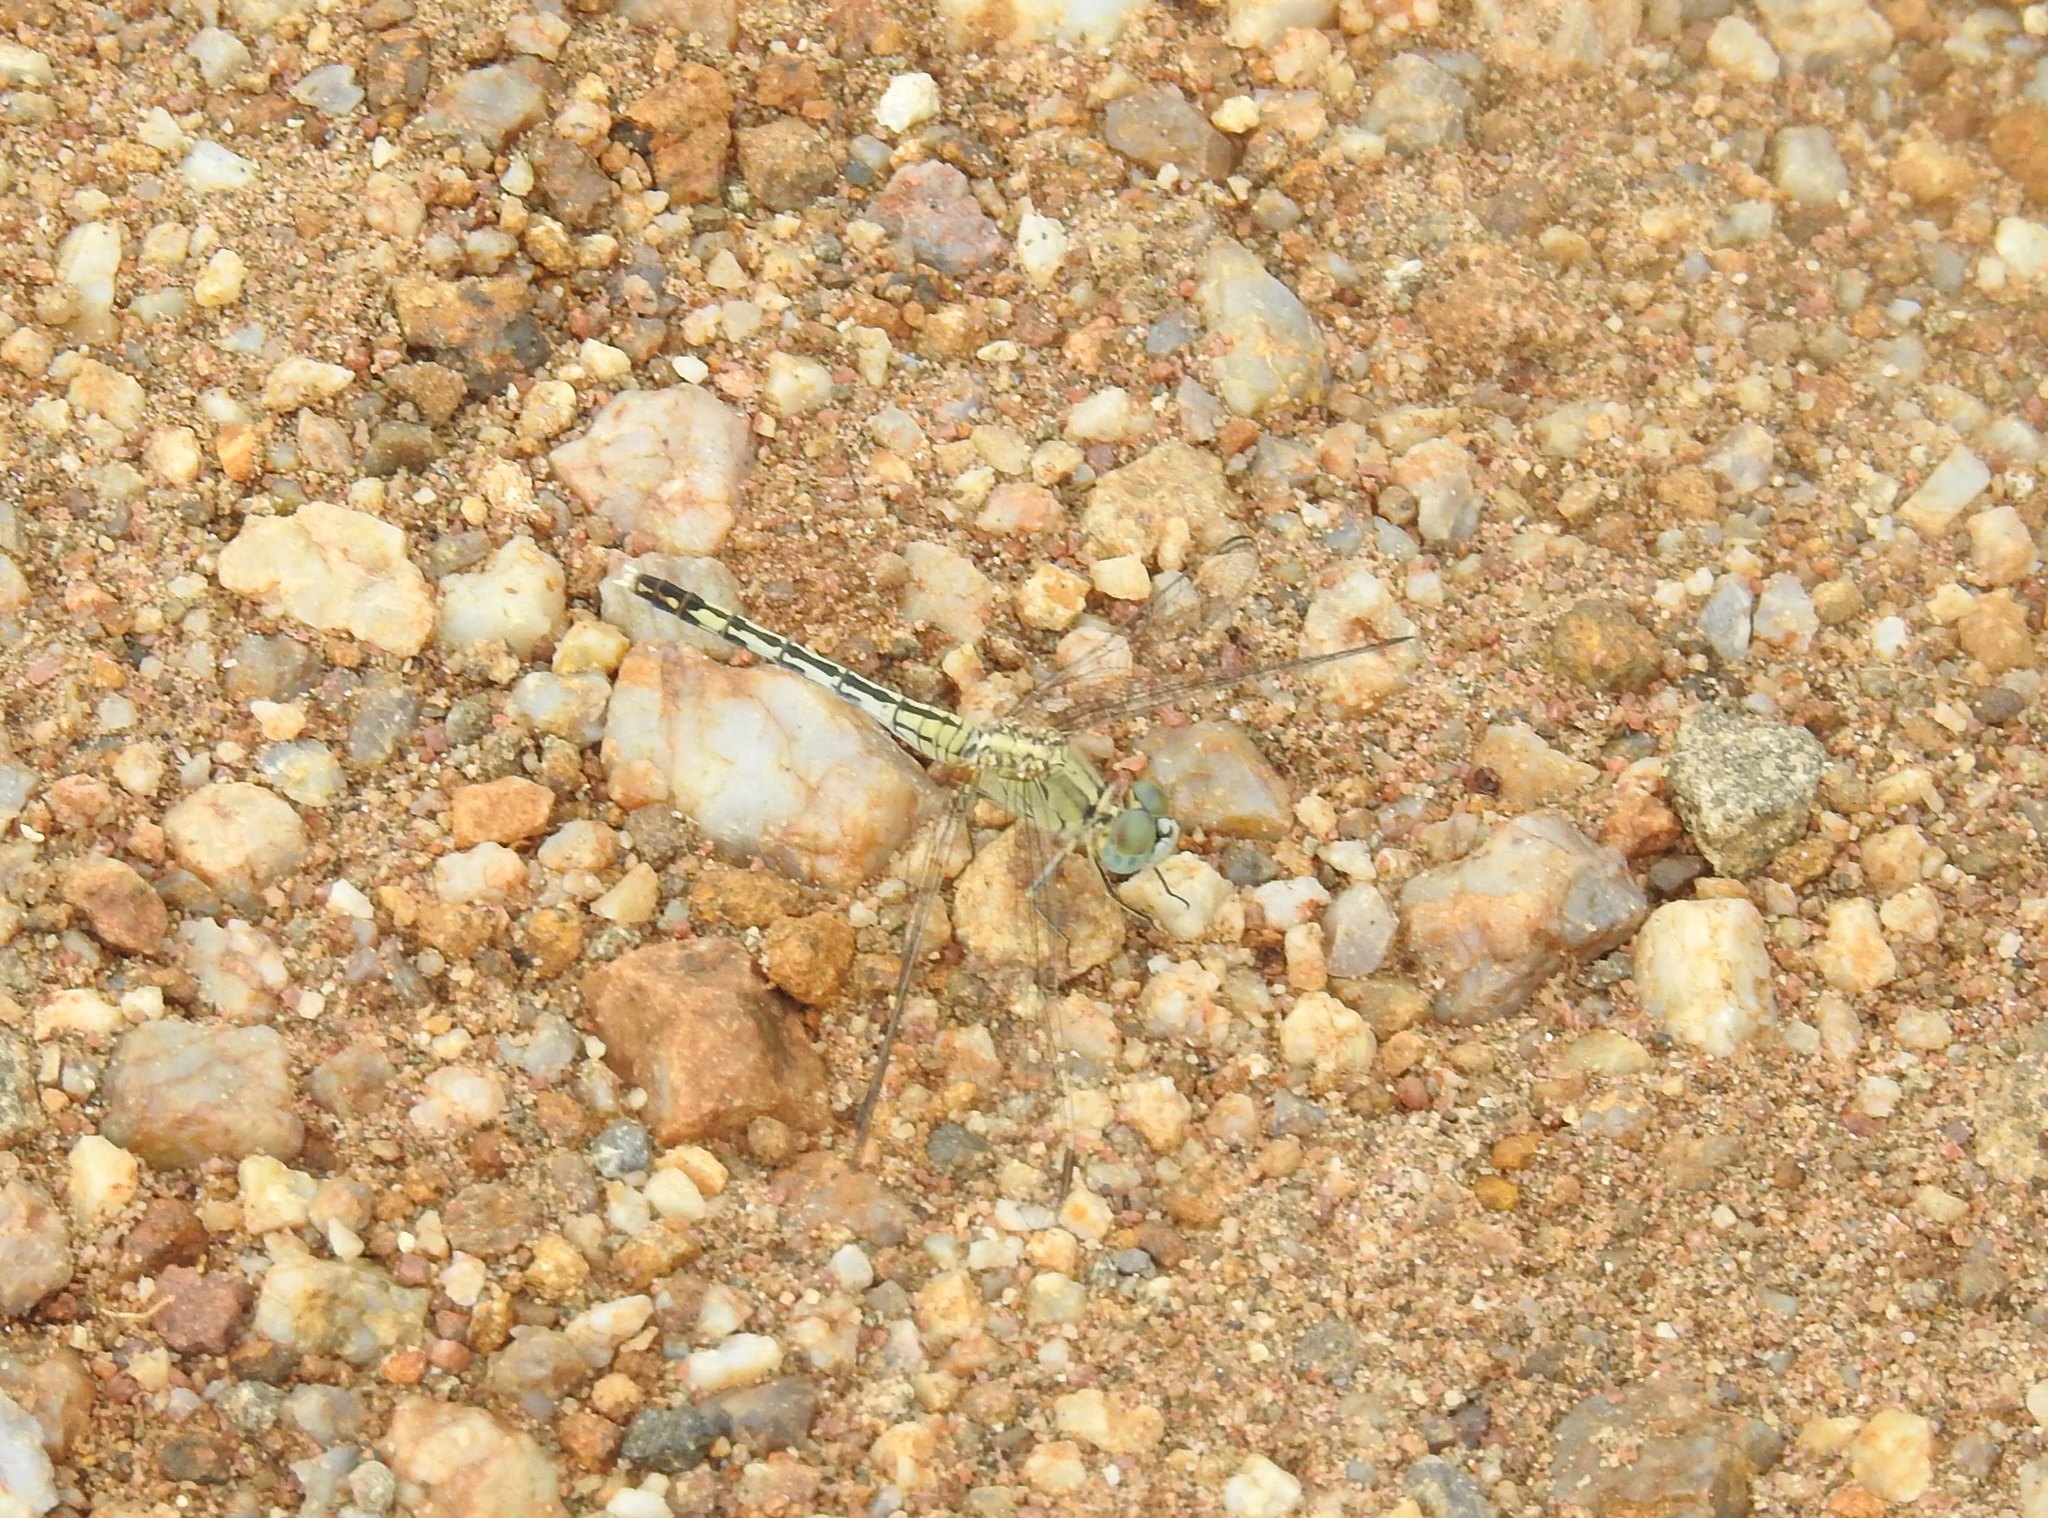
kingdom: Animalia
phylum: Arthropoda
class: Insecta
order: Odonata
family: Libellulidae
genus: Diplacodes
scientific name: Diplacodes trivialis
